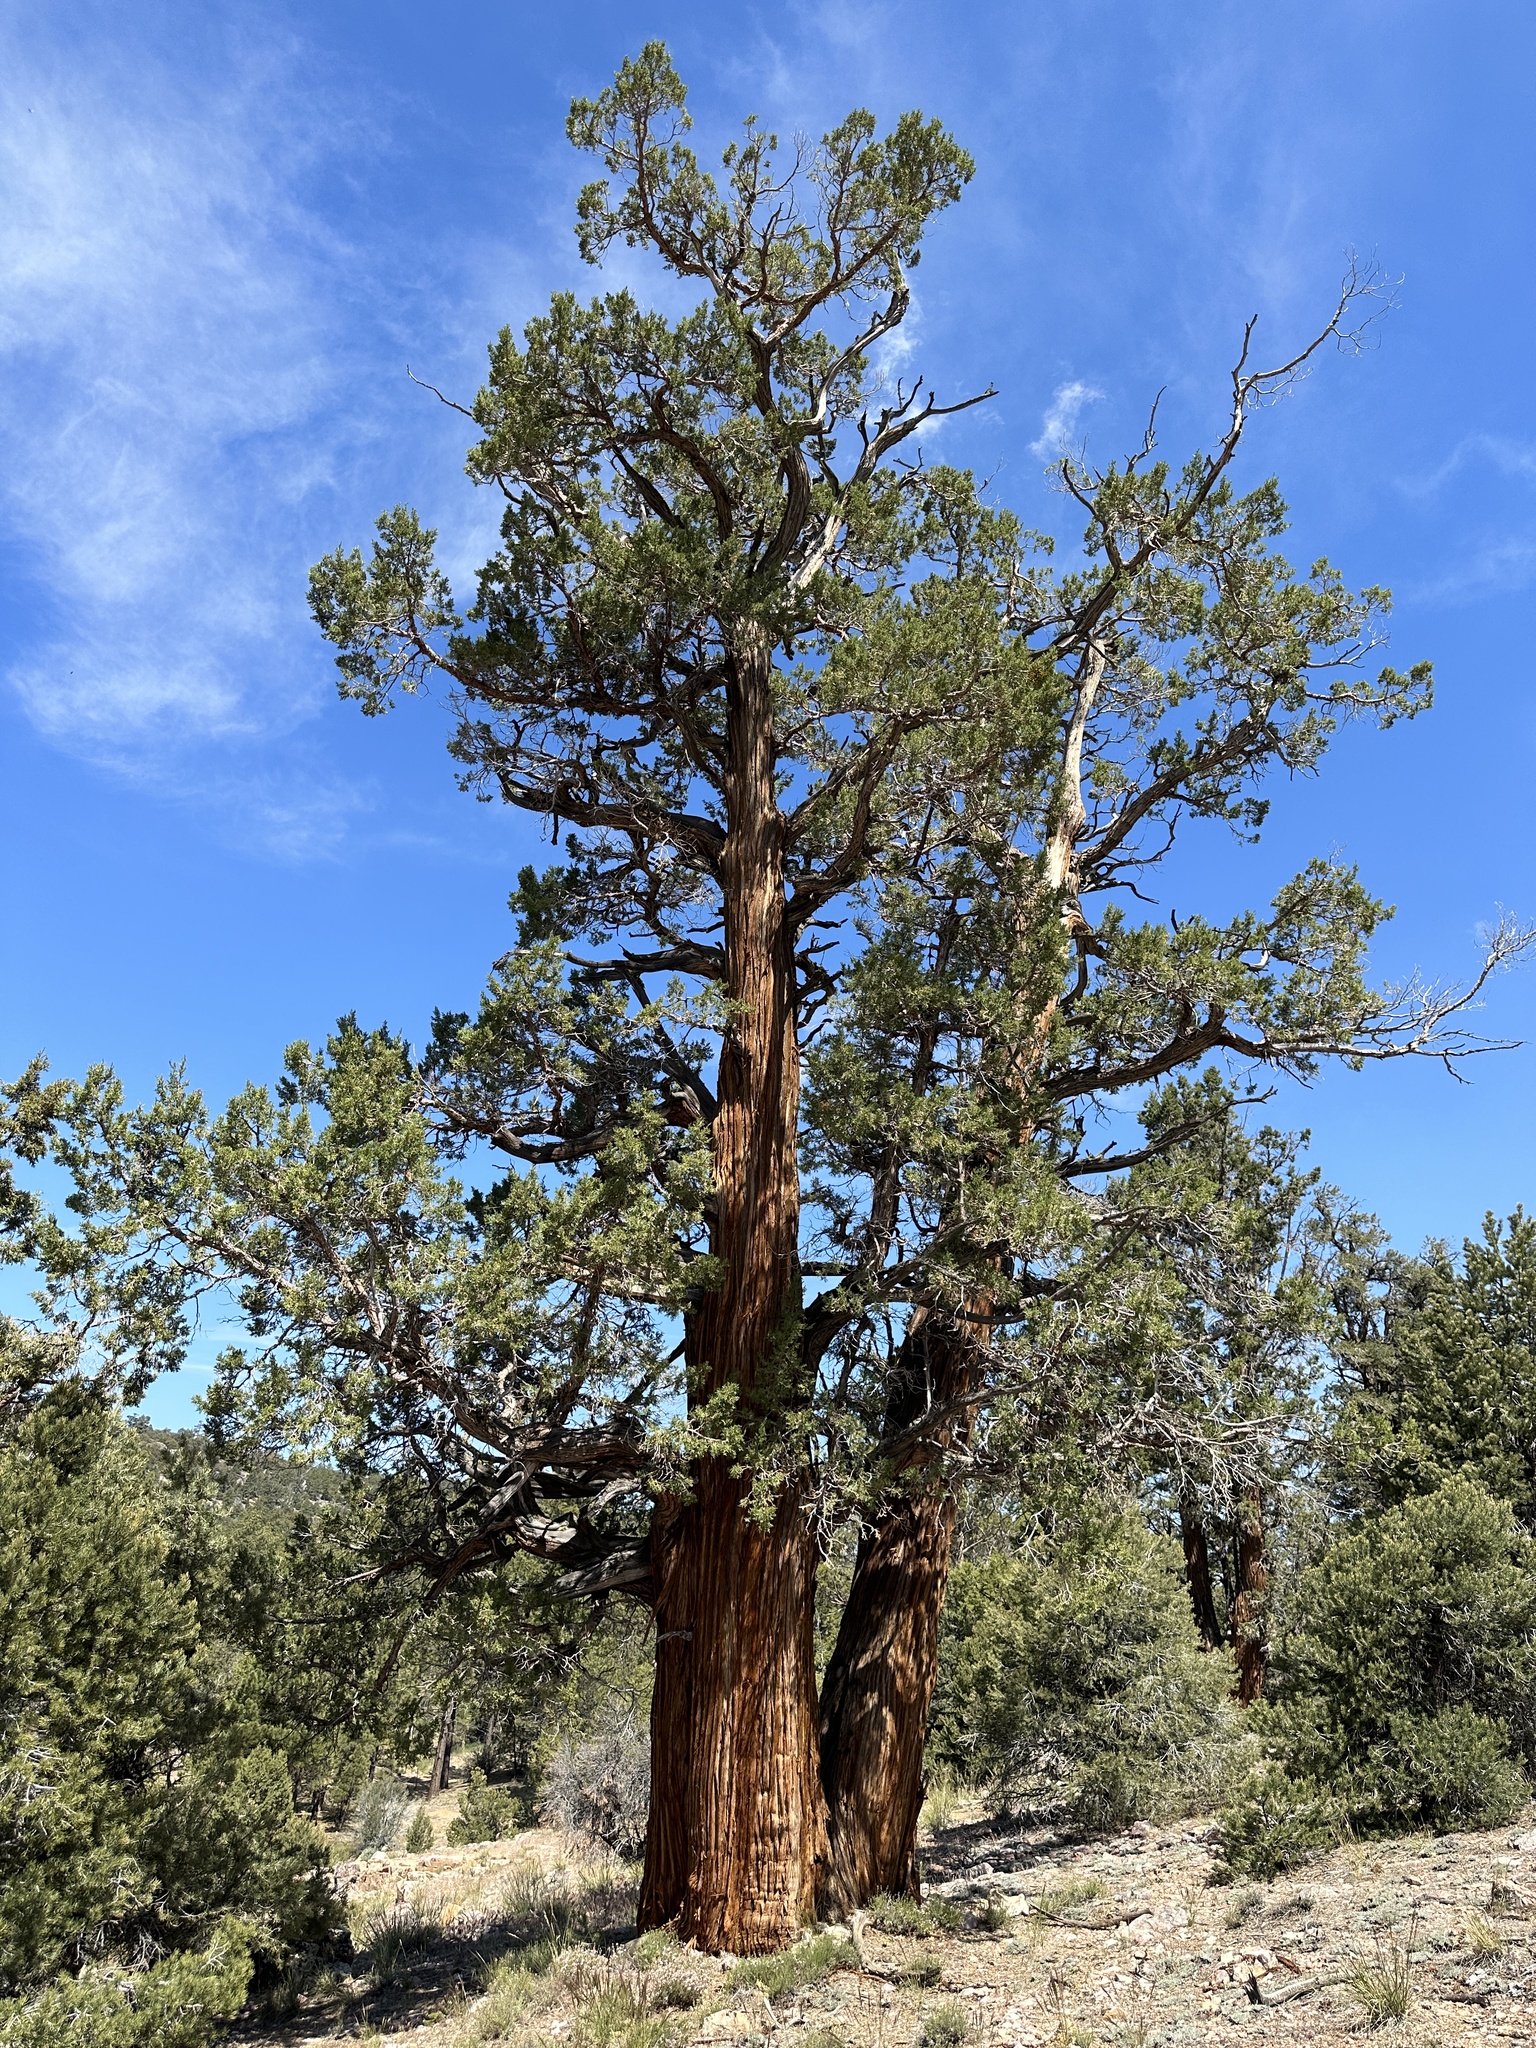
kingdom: Plantae
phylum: Tracheophyta
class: Pinopsida
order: Pinales
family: Cupressaceae
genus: Juniperus
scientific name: Juniperus occidentalis
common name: Western juniper
